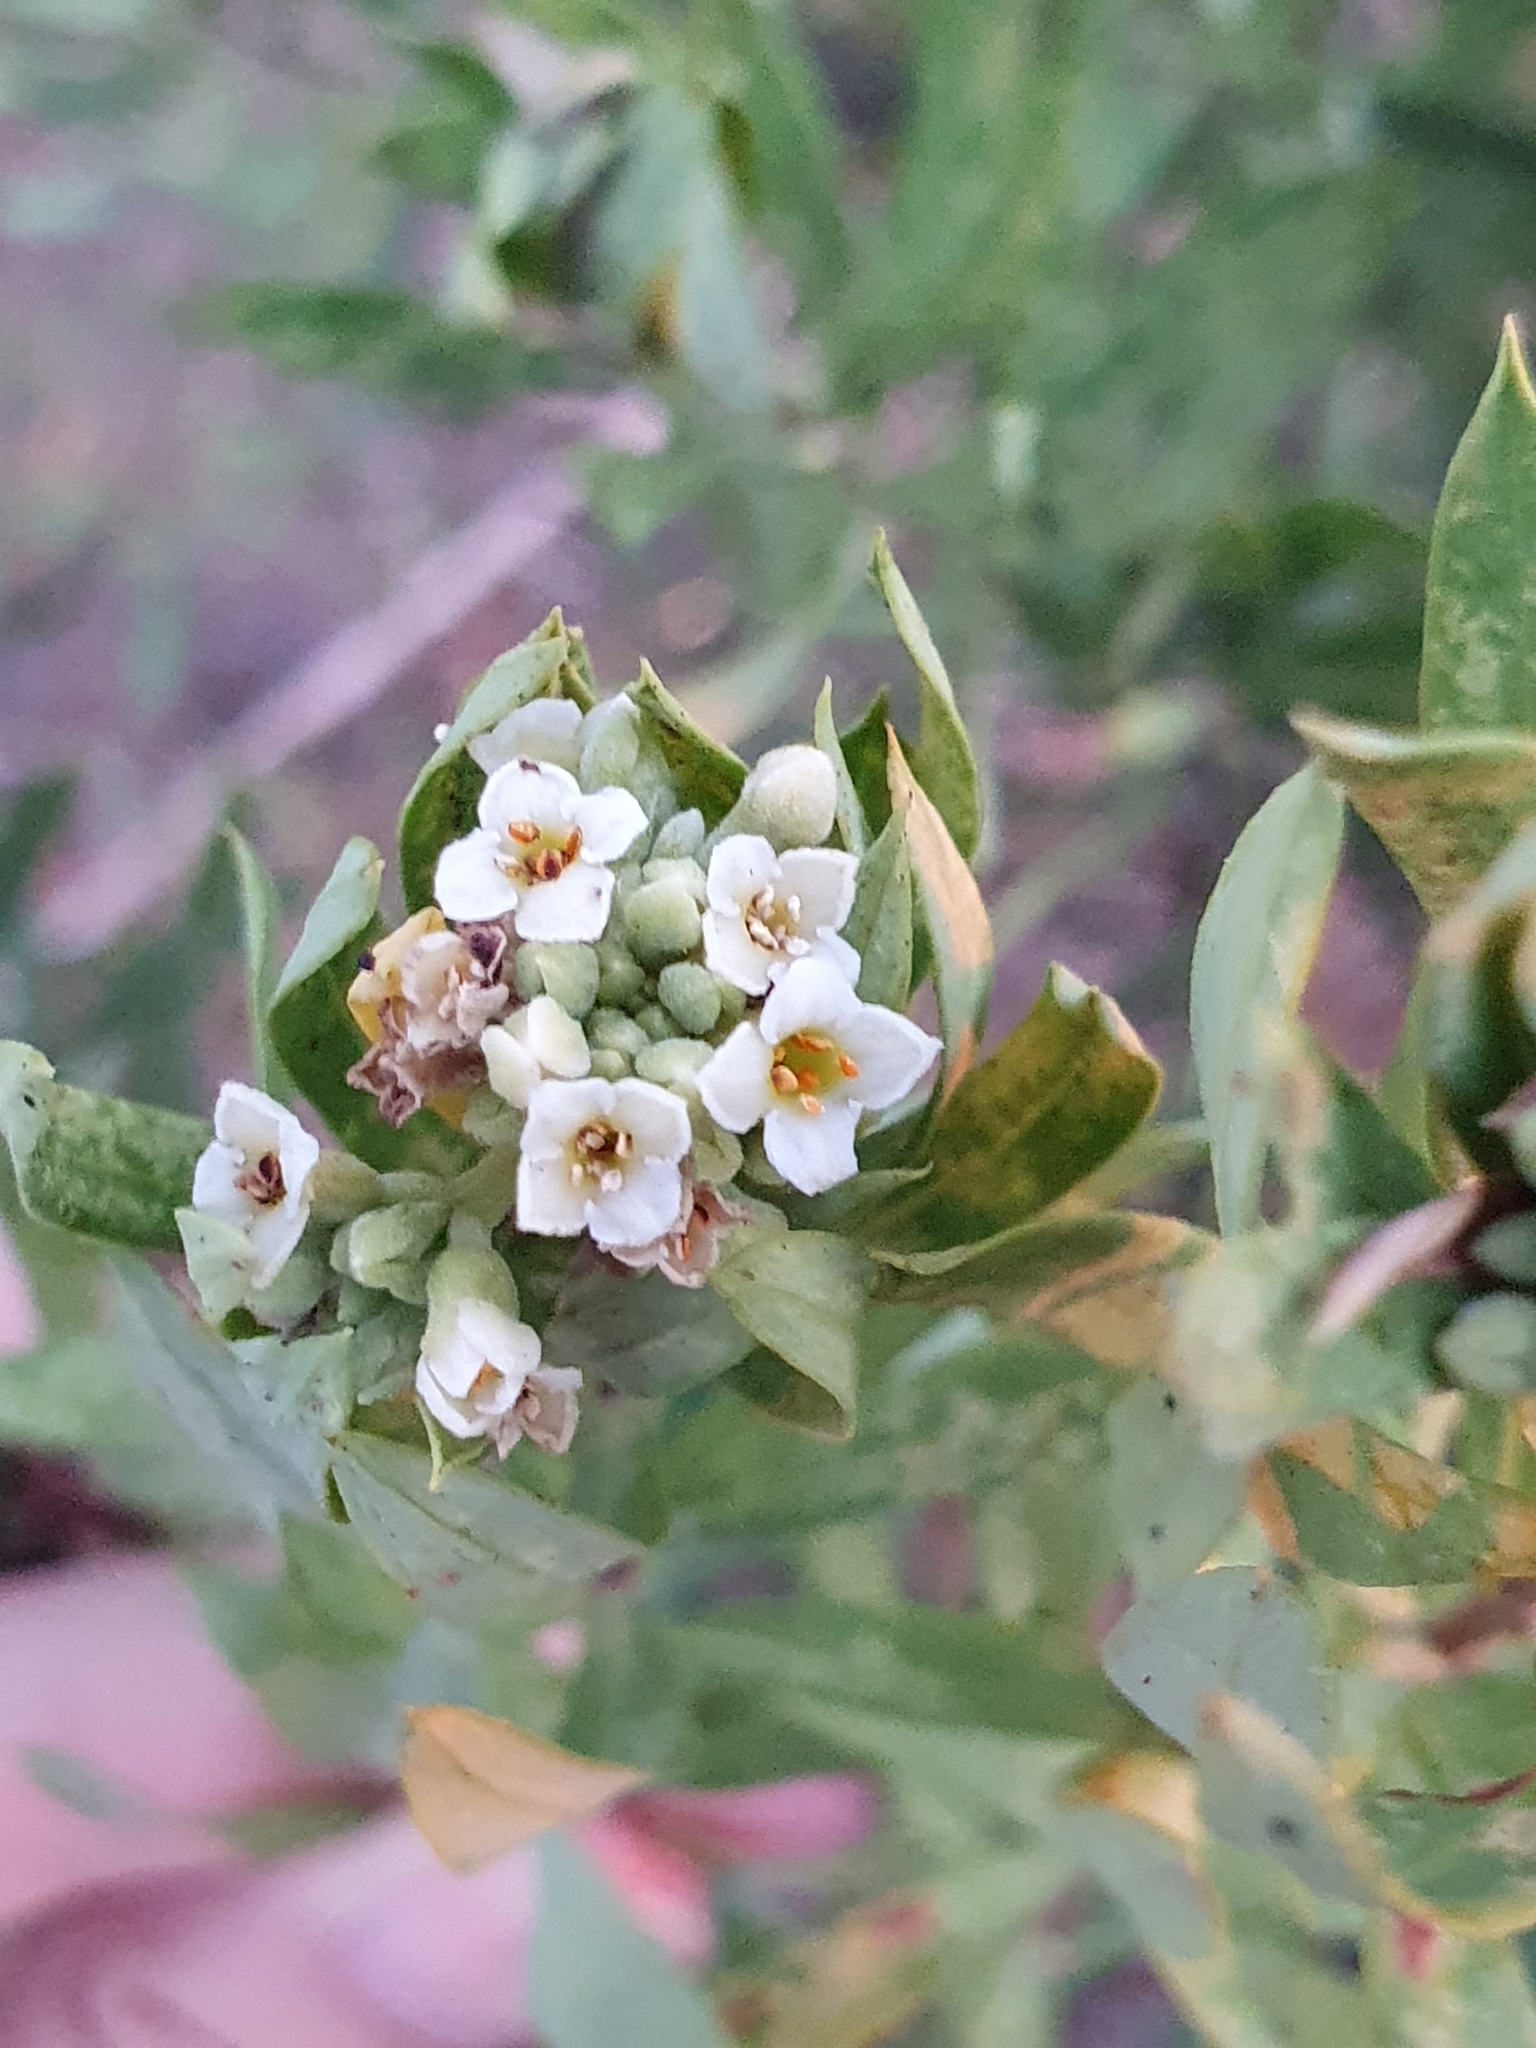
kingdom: Plantae
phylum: Tracheophyta
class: Magnoliopsida
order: Malvales
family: Thymelaeaceae
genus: Daphne
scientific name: Daphne gnidium
